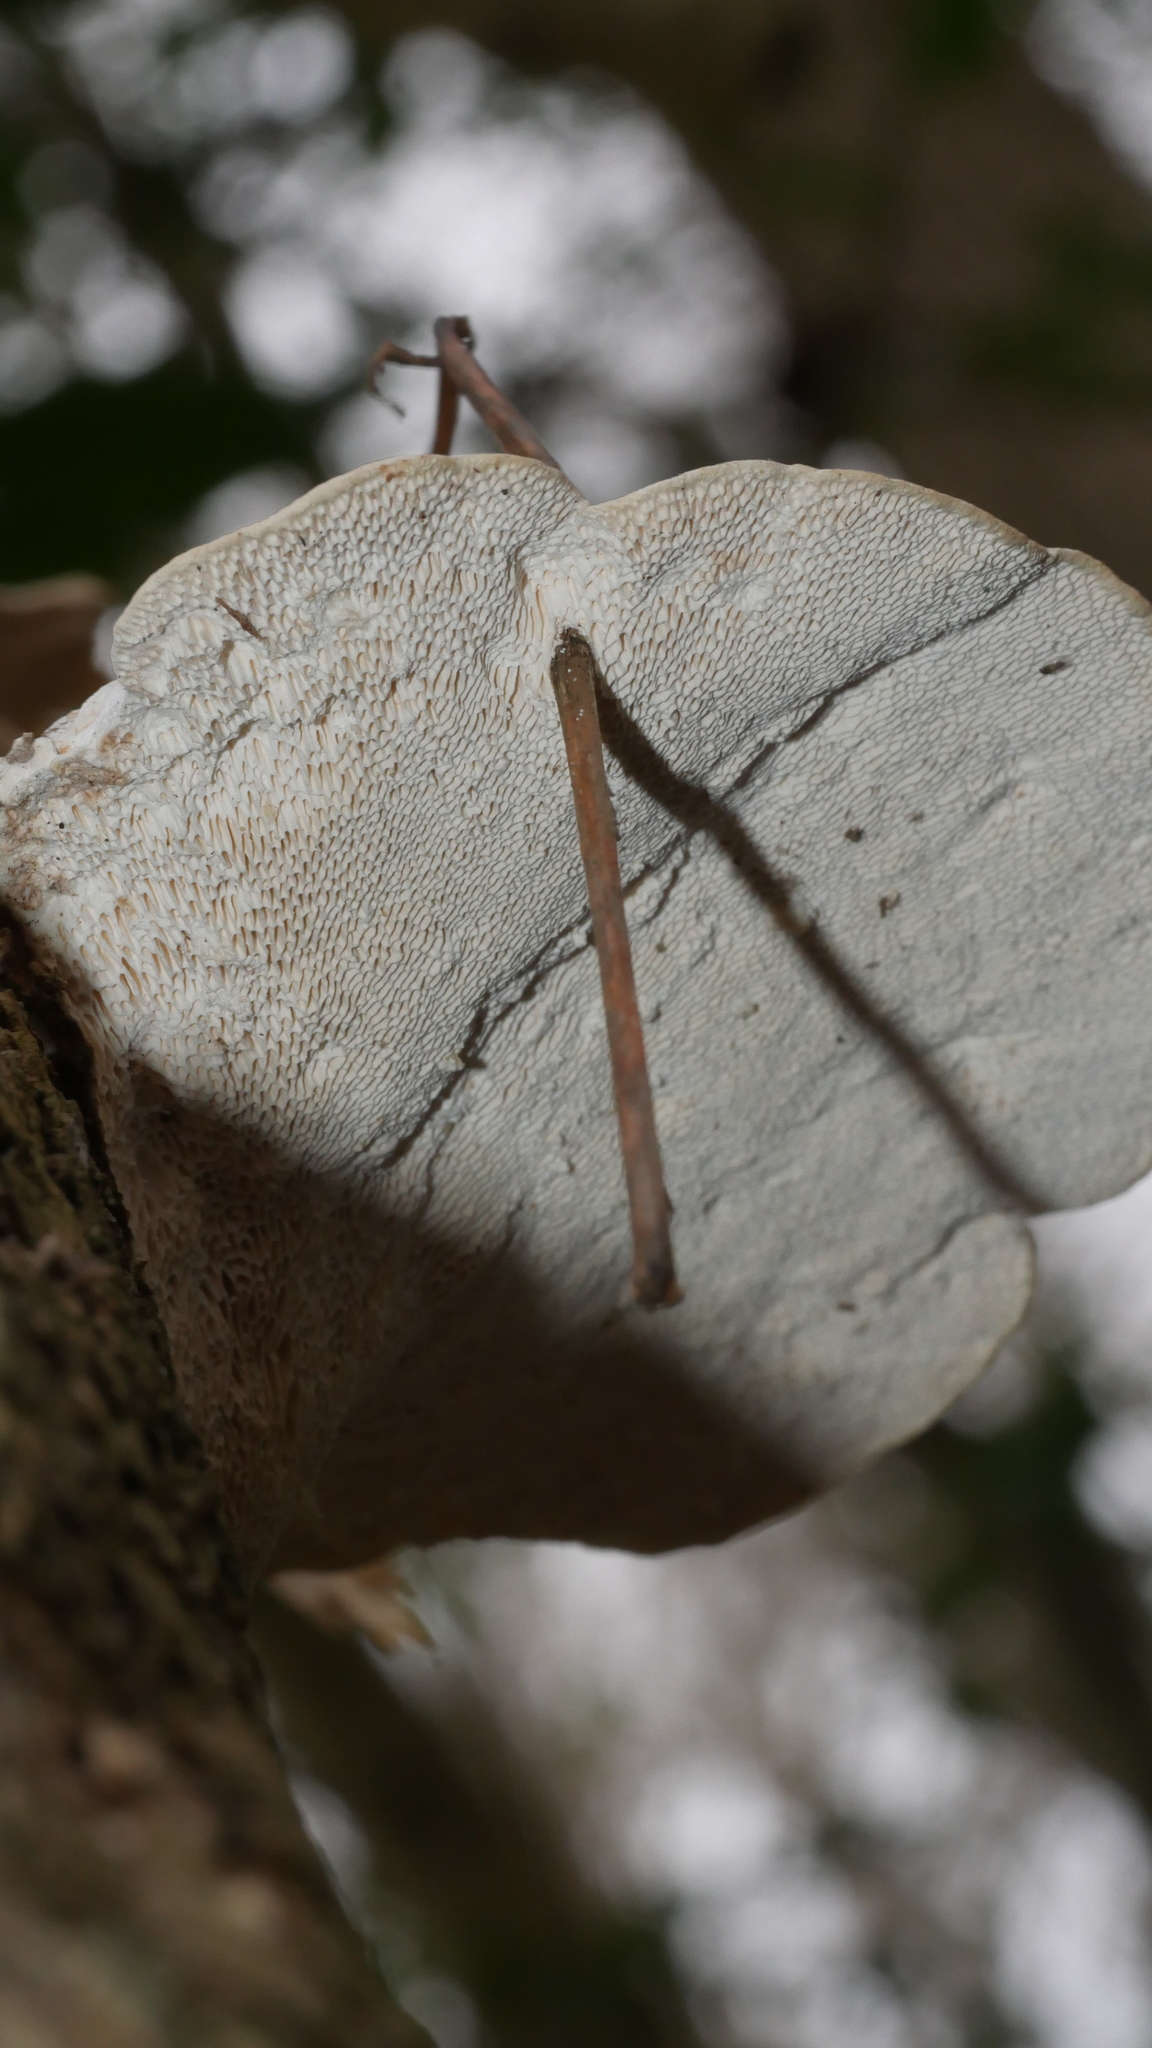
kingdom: Fungi
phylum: Basidiomycota
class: Agaricomycetes
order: Polyporales
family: Polyporaceae
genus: Trametes
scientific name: Trametes gibbosa
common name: Lumpy bracket
